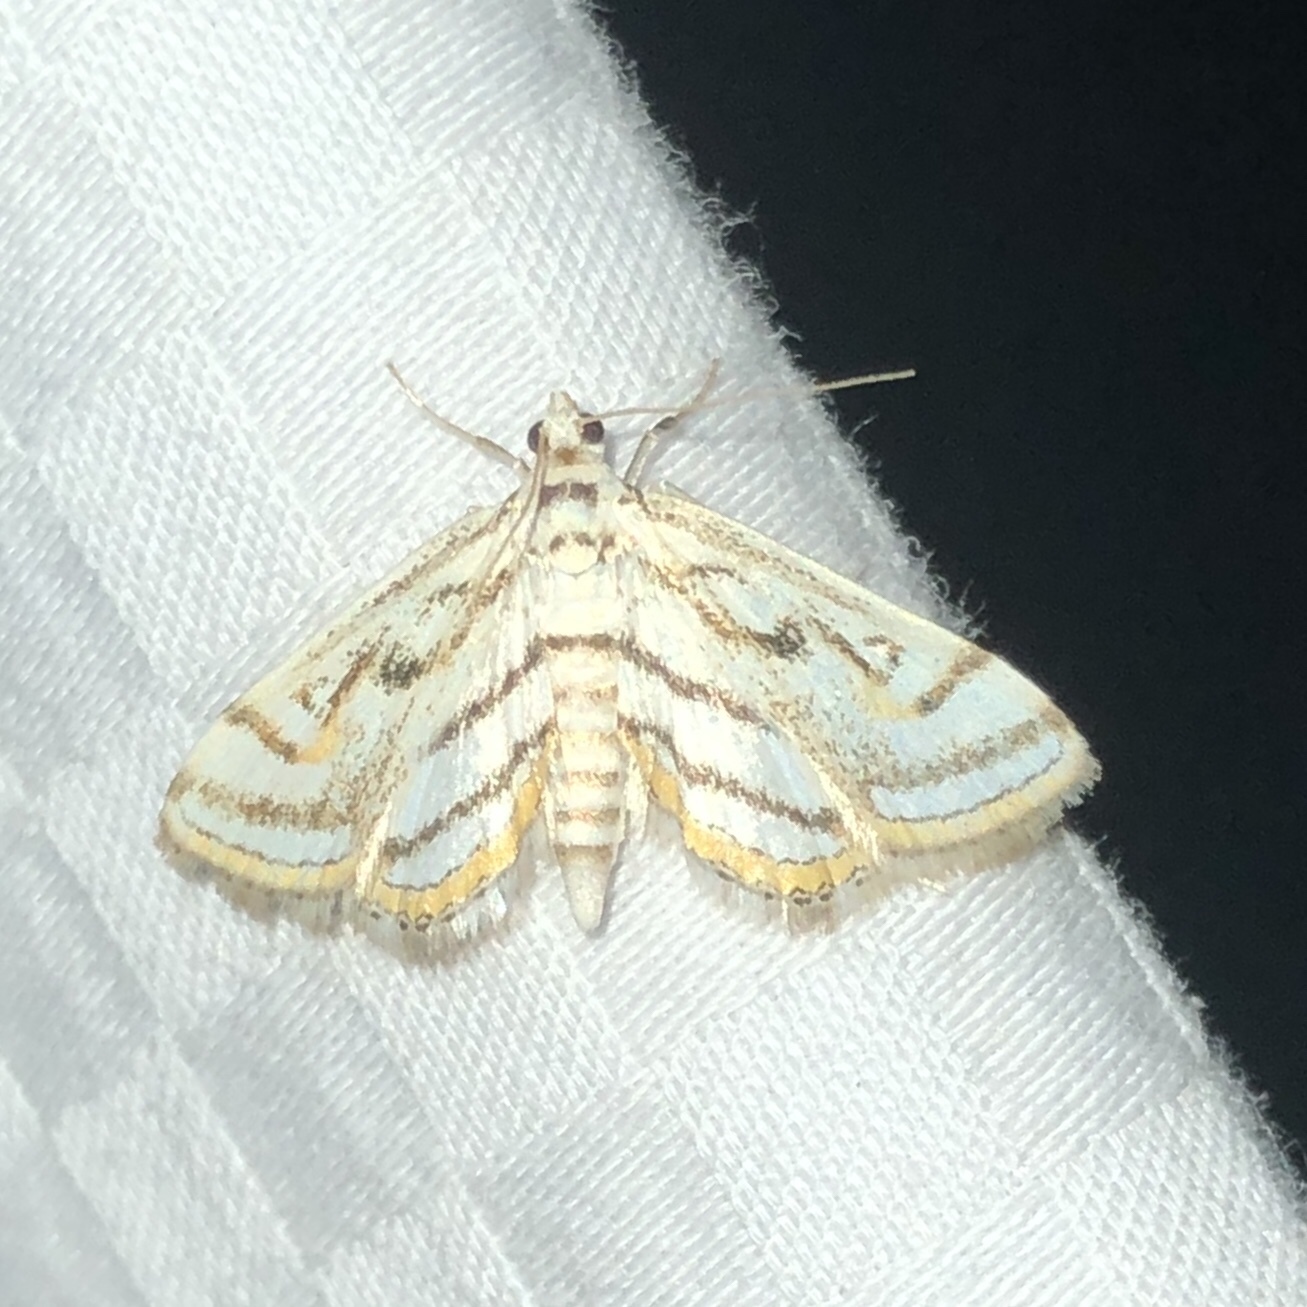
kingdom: Animalia
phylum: Arthropoda
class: Insecta
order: Lepidoptera
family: Crambidae
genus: Parapoynx
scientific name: Parapoynx badiusalis
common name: Chestnut-marked pondweed moth
